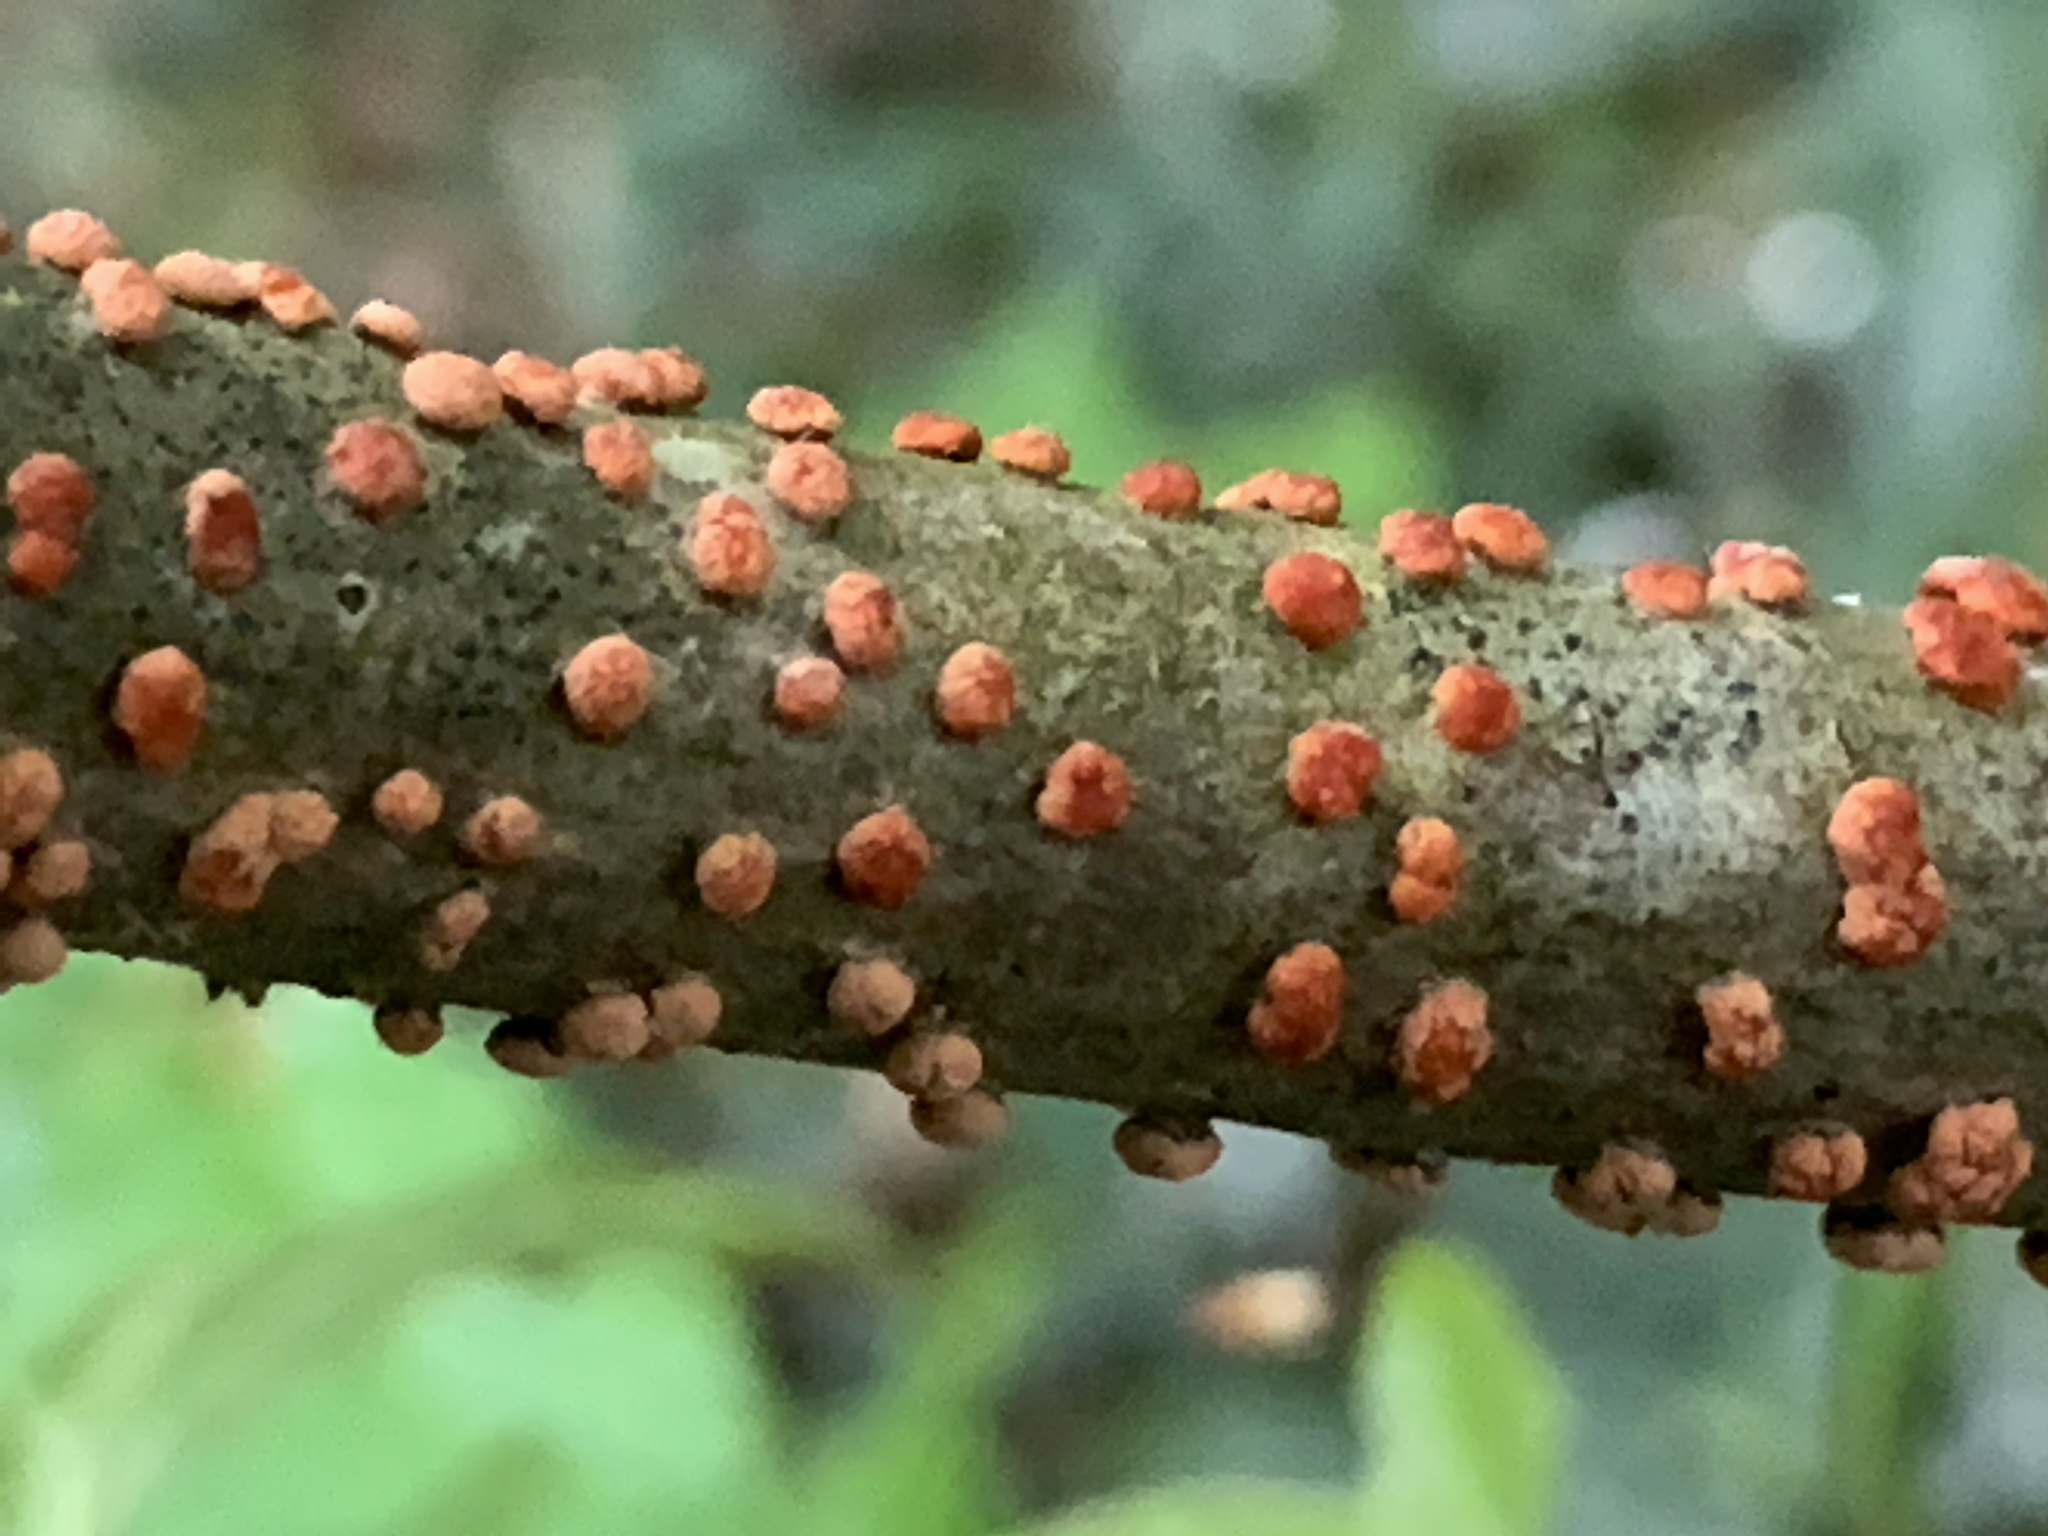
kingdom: Fungi
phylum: Ascomycota
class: Sordariomycetes
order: Hypocreales
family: Nectriaceae
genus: Nectria
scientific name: Nectria cinnabarina
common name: Coral spot
